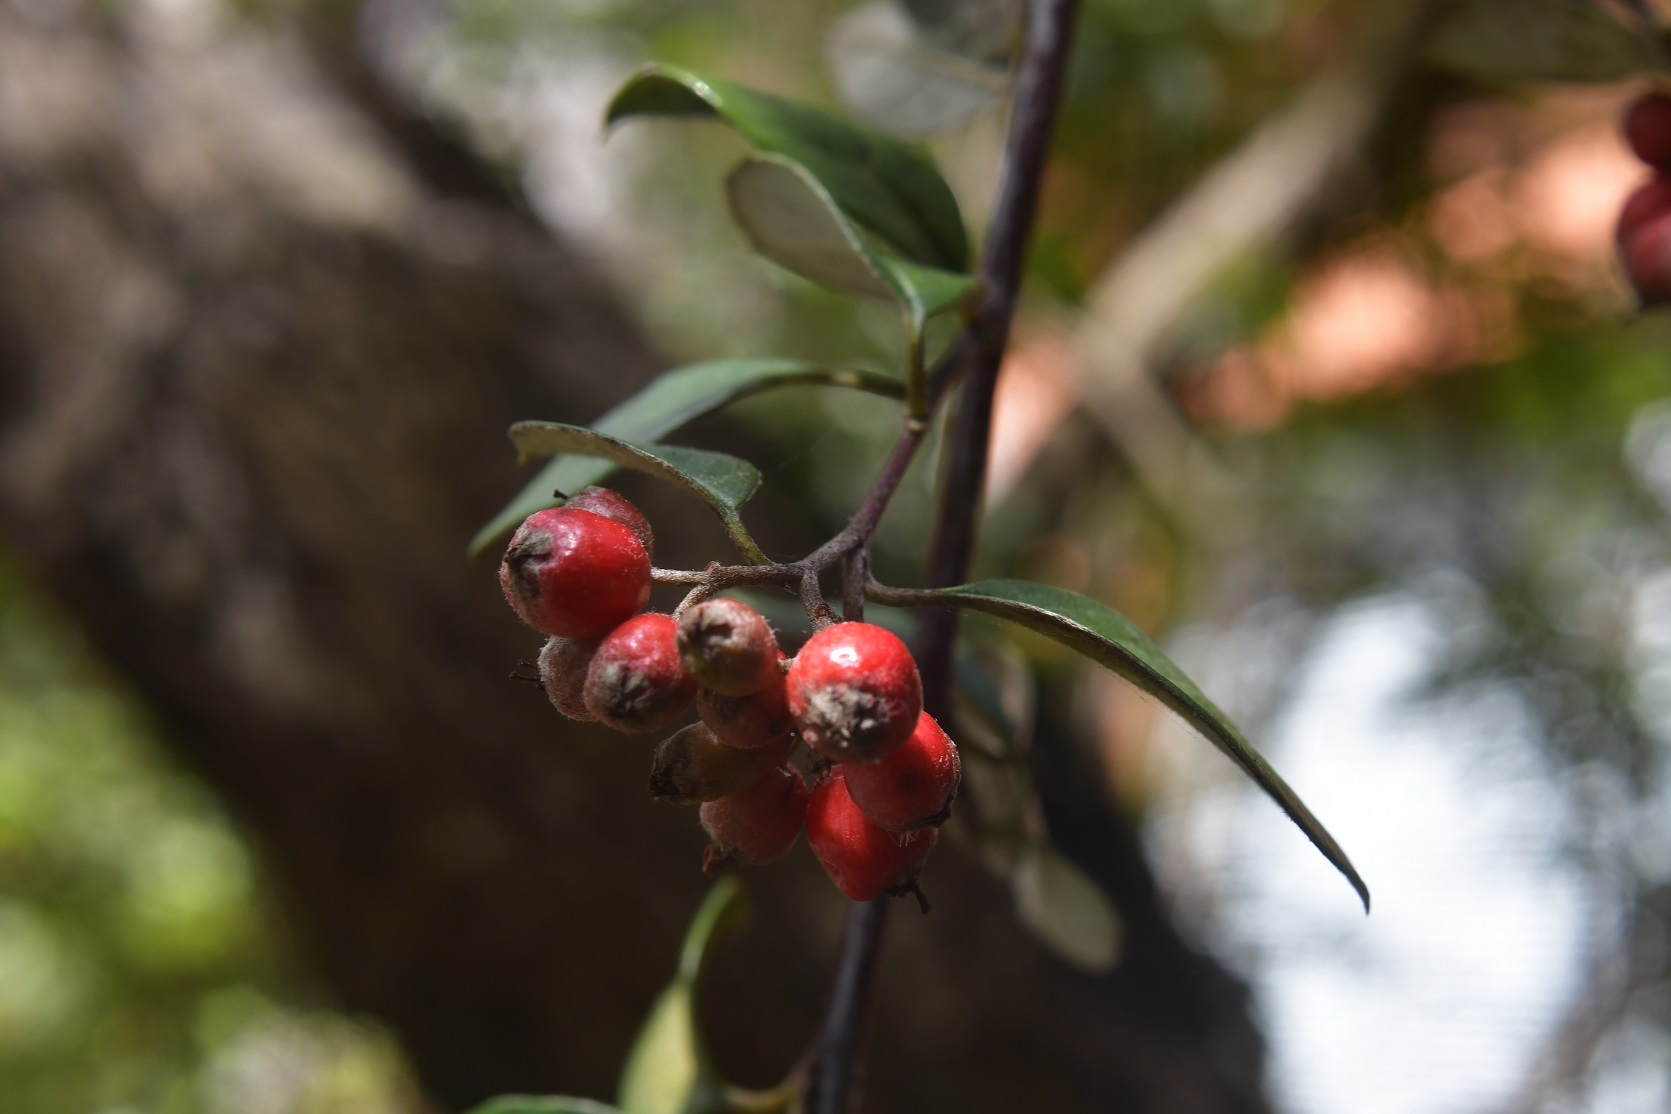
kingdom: Plantae
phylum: Tracheophyta
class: Magnoliopsida
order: Rosales
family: Rosaceae
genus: Cotoneaster
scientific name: Cotoneaster pannosus
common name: Silverleaf cotoneaster
